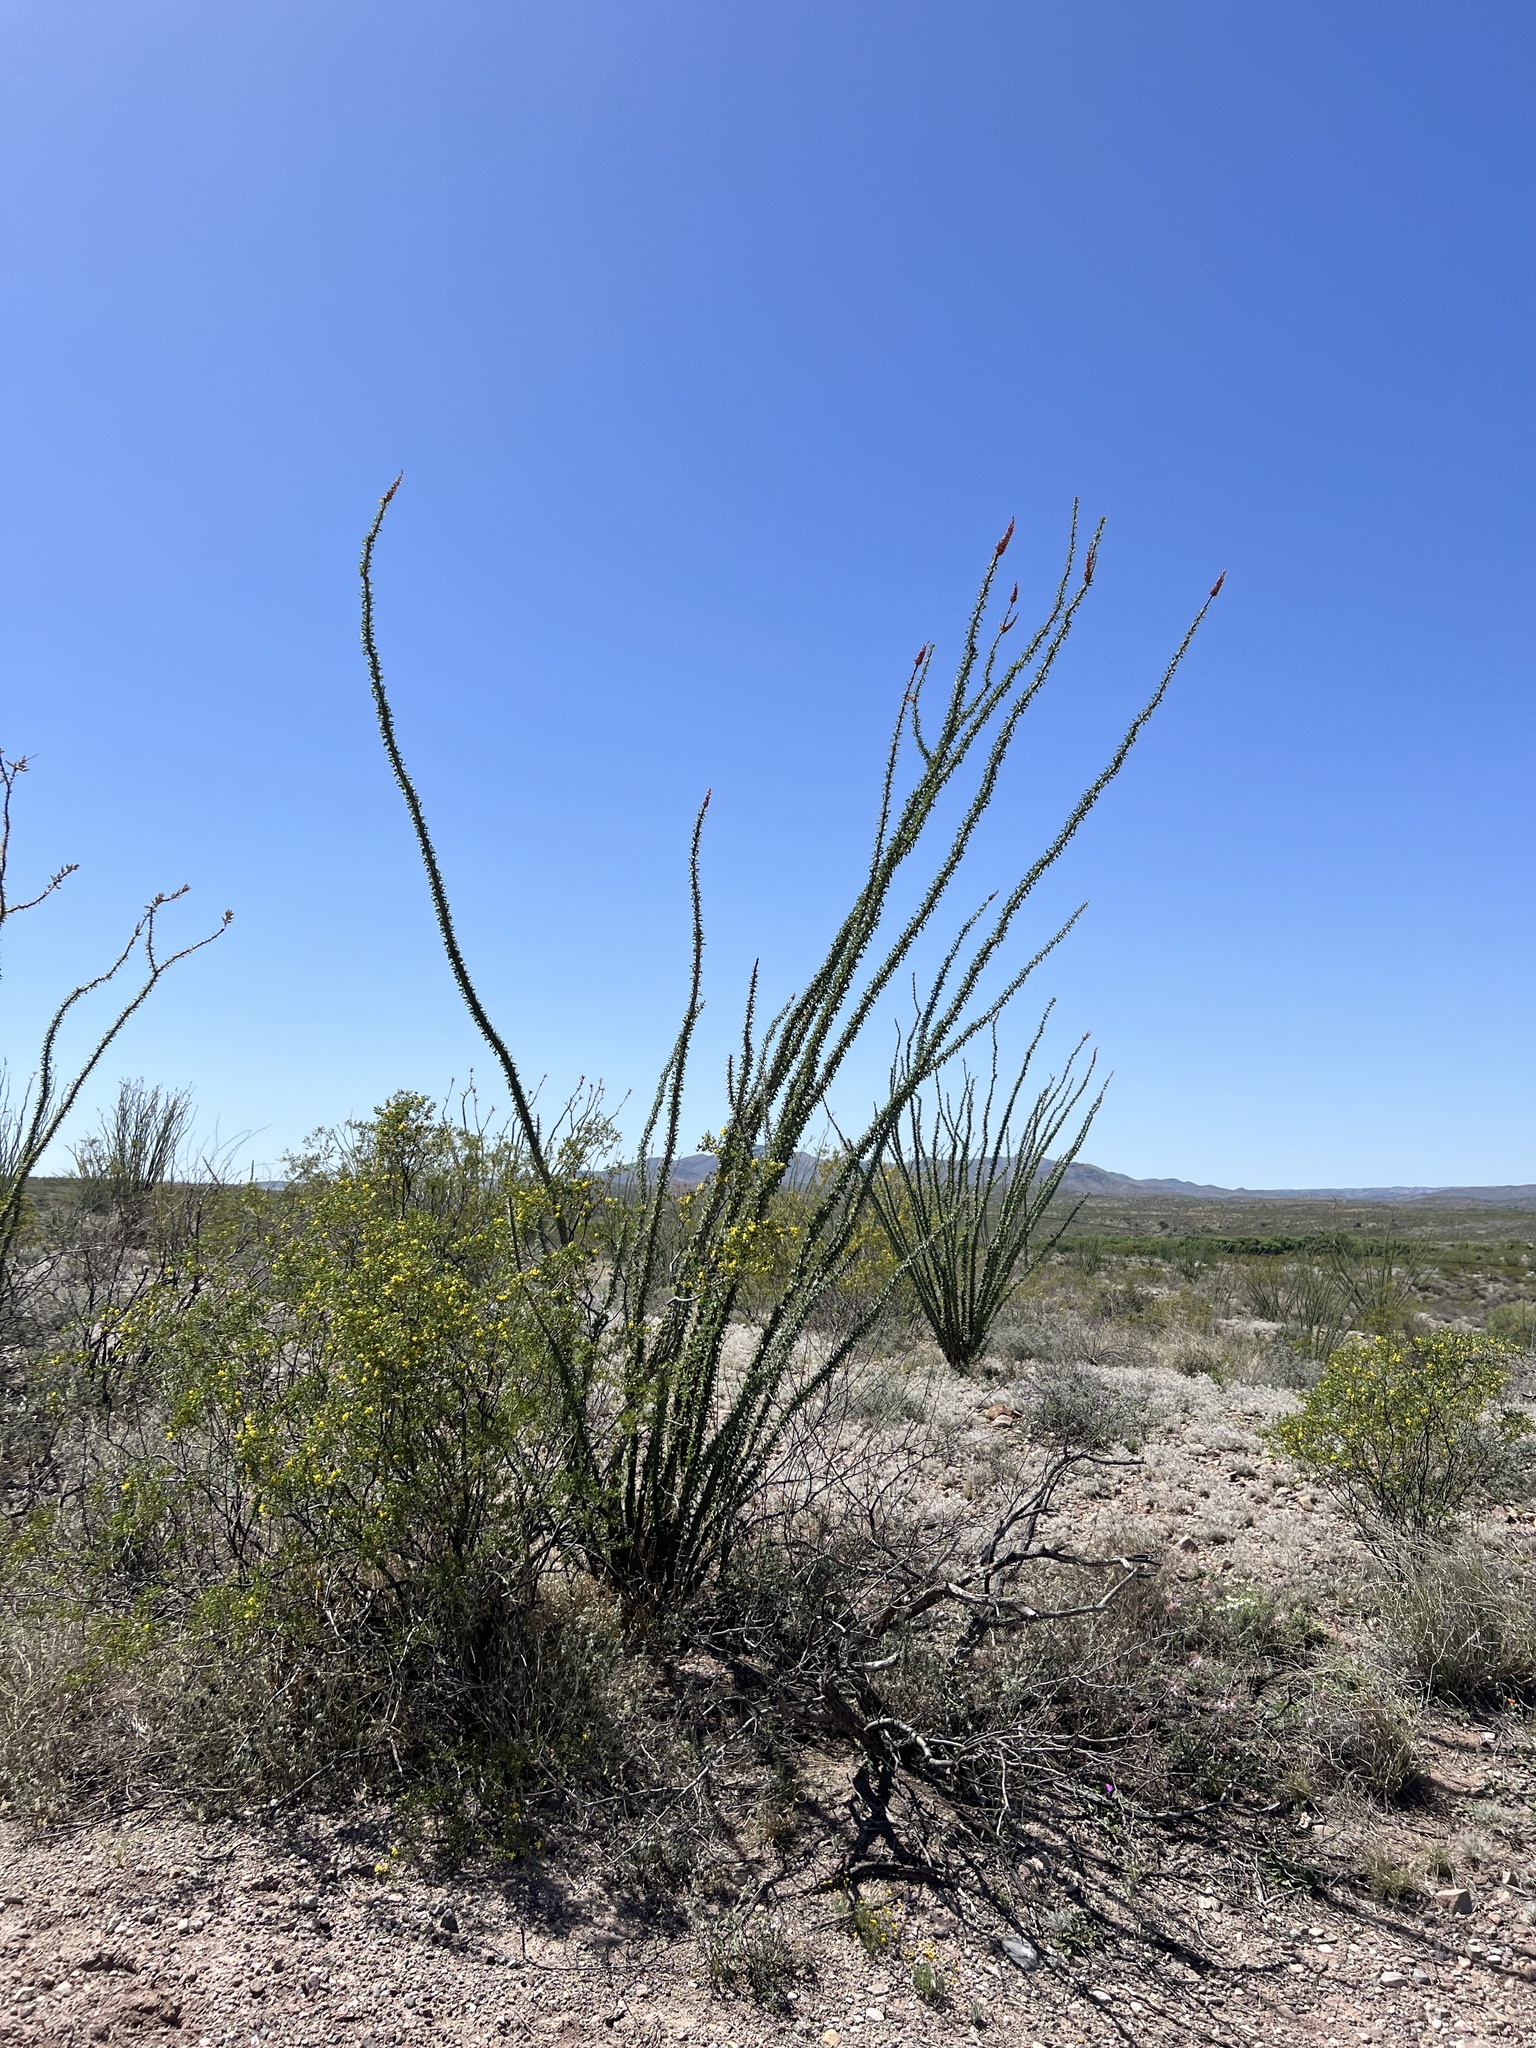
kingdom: Plantae
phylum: Tracheophyta
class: Magnoliopsida
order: Ericales
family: Fouquieriaceae
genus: Fouquieria
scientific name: Fouquieria splendens
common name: Vine-cactus
